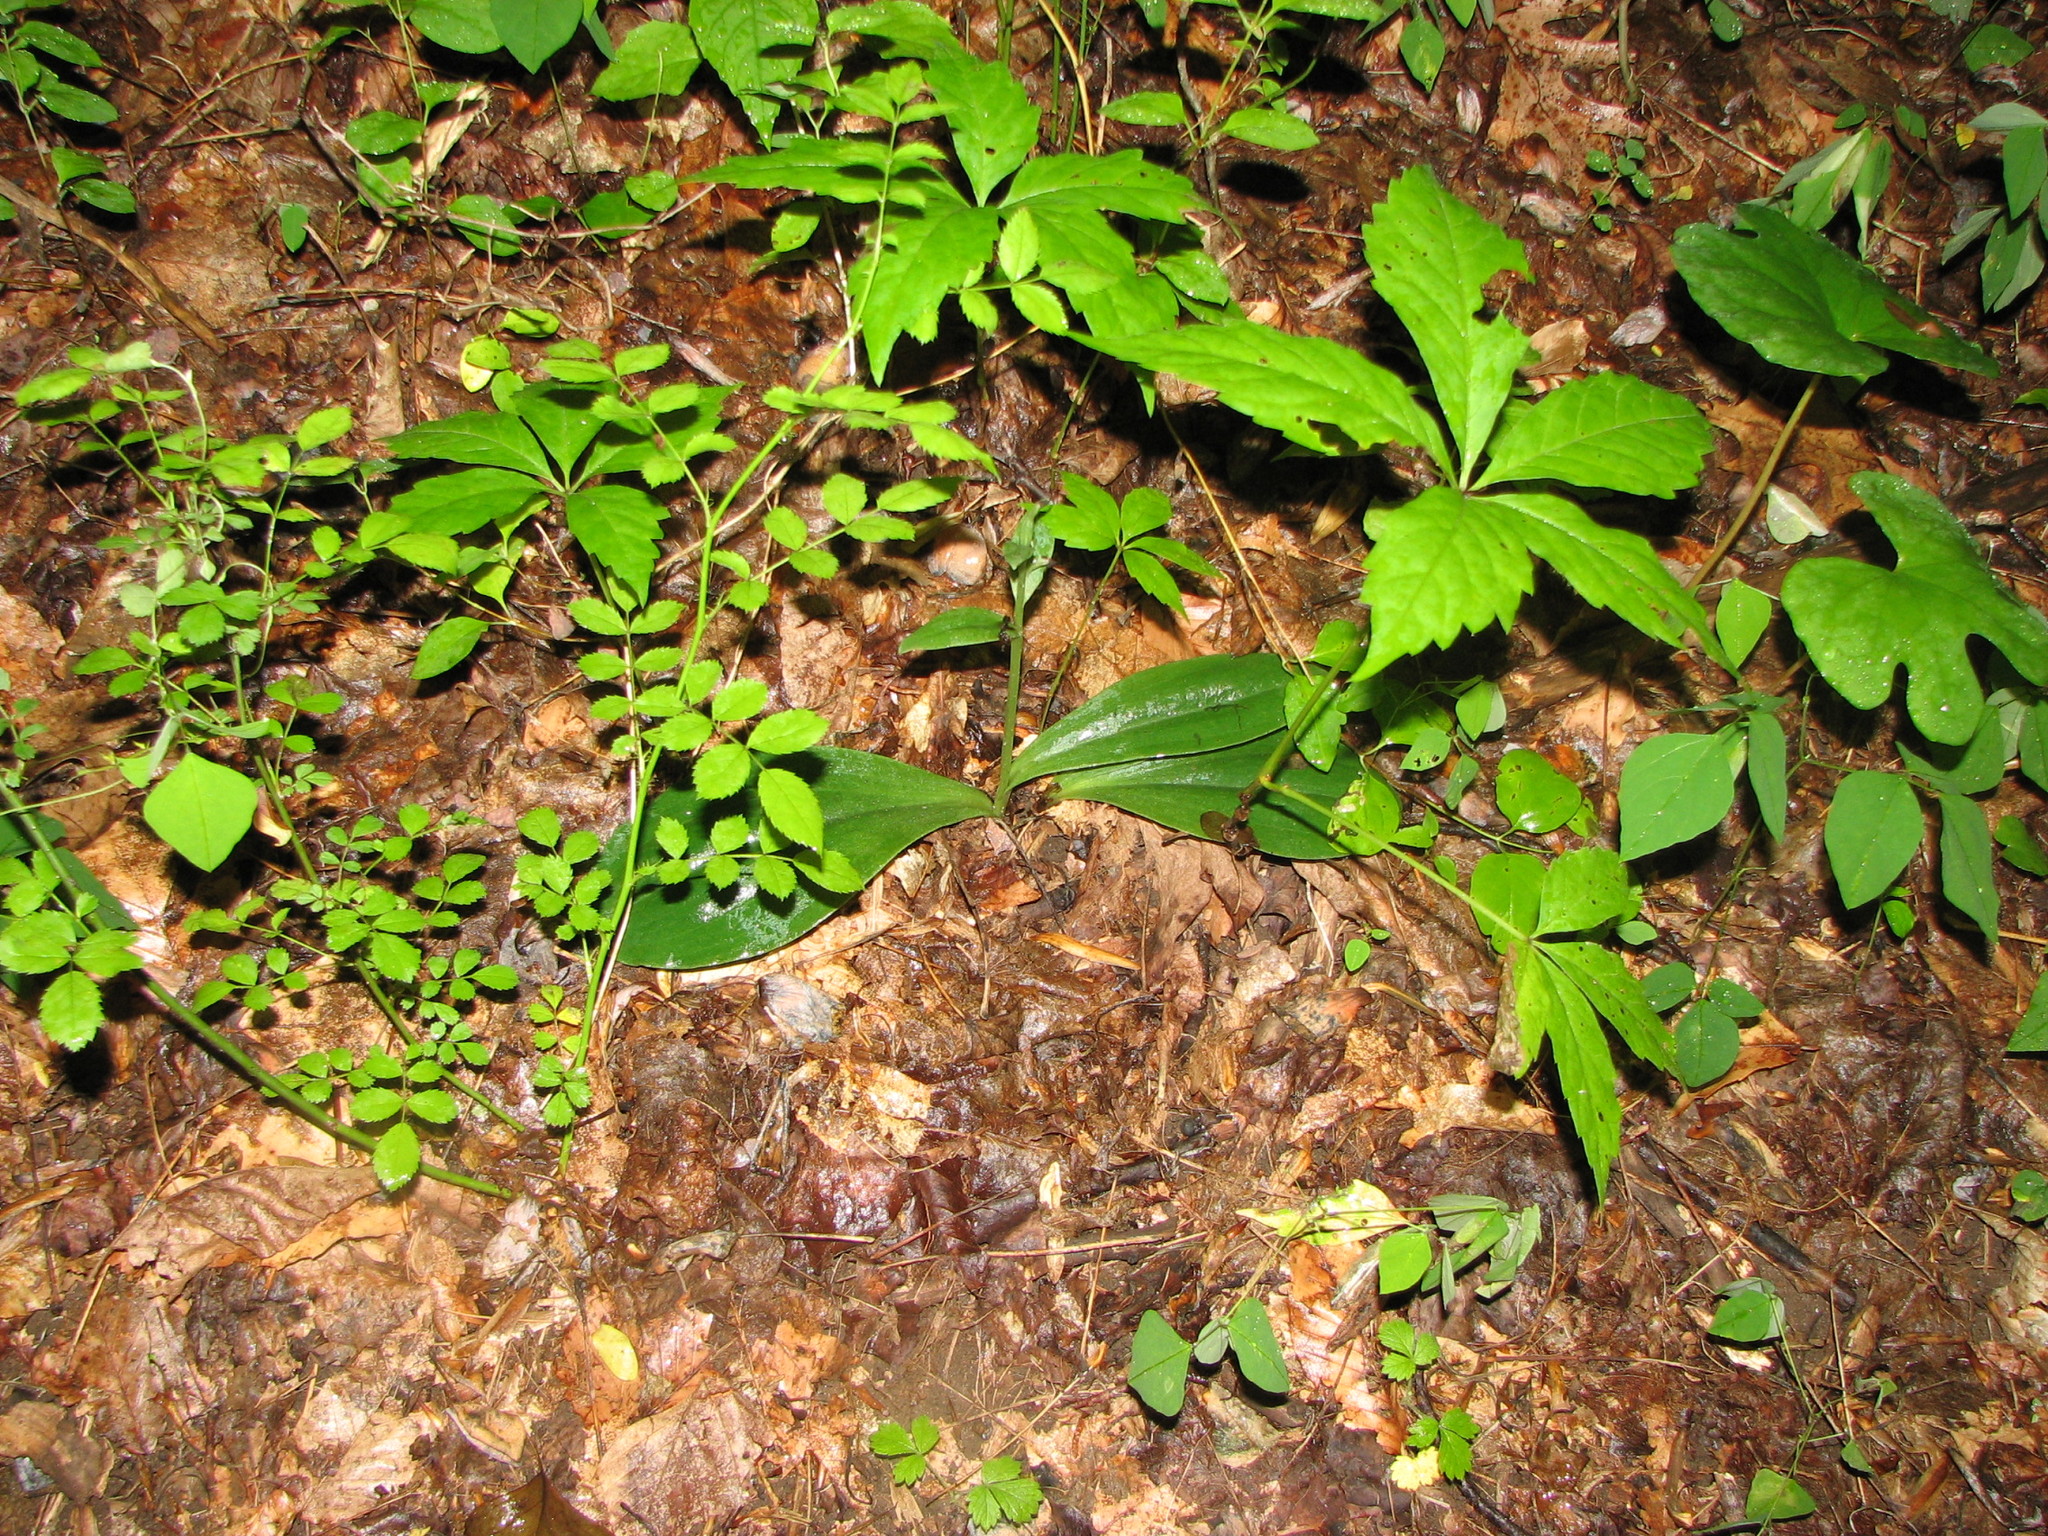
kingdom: Plantae
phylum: Tracheophyta
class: Liliopsida
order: Asparagales
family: Orchidaceae
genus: Galearis
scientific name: Galearis spectabilis
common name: Purple-hooded orchis
